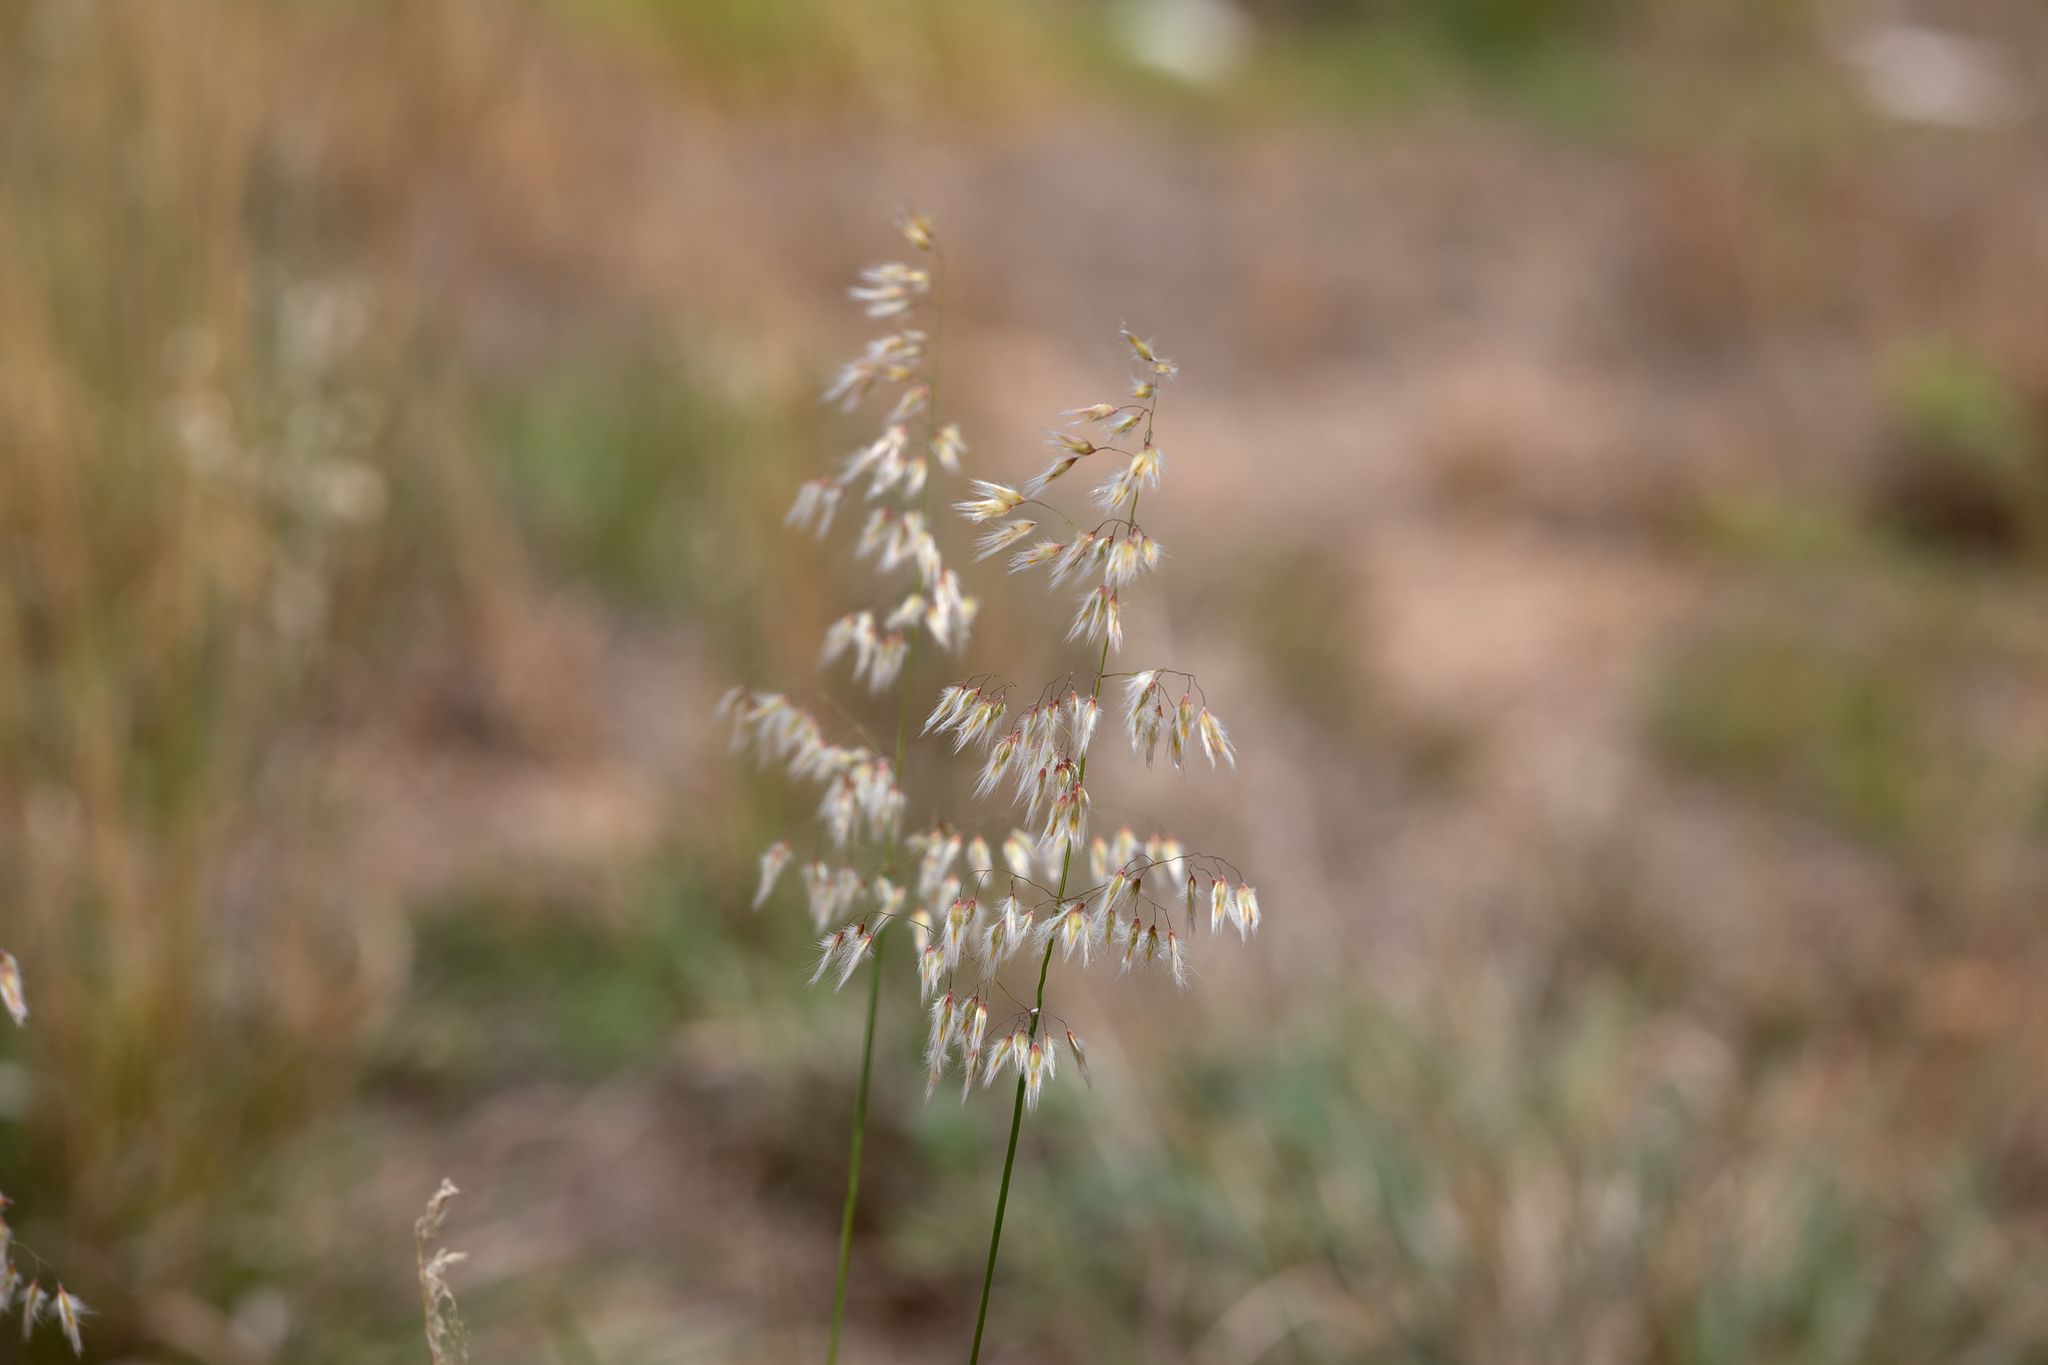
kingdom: Plantae
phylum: Tracheophyta
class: Liliopsida
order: Poales
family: Poaceae
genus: Melinis
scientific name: Melinis repens
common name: Rose natal grass
